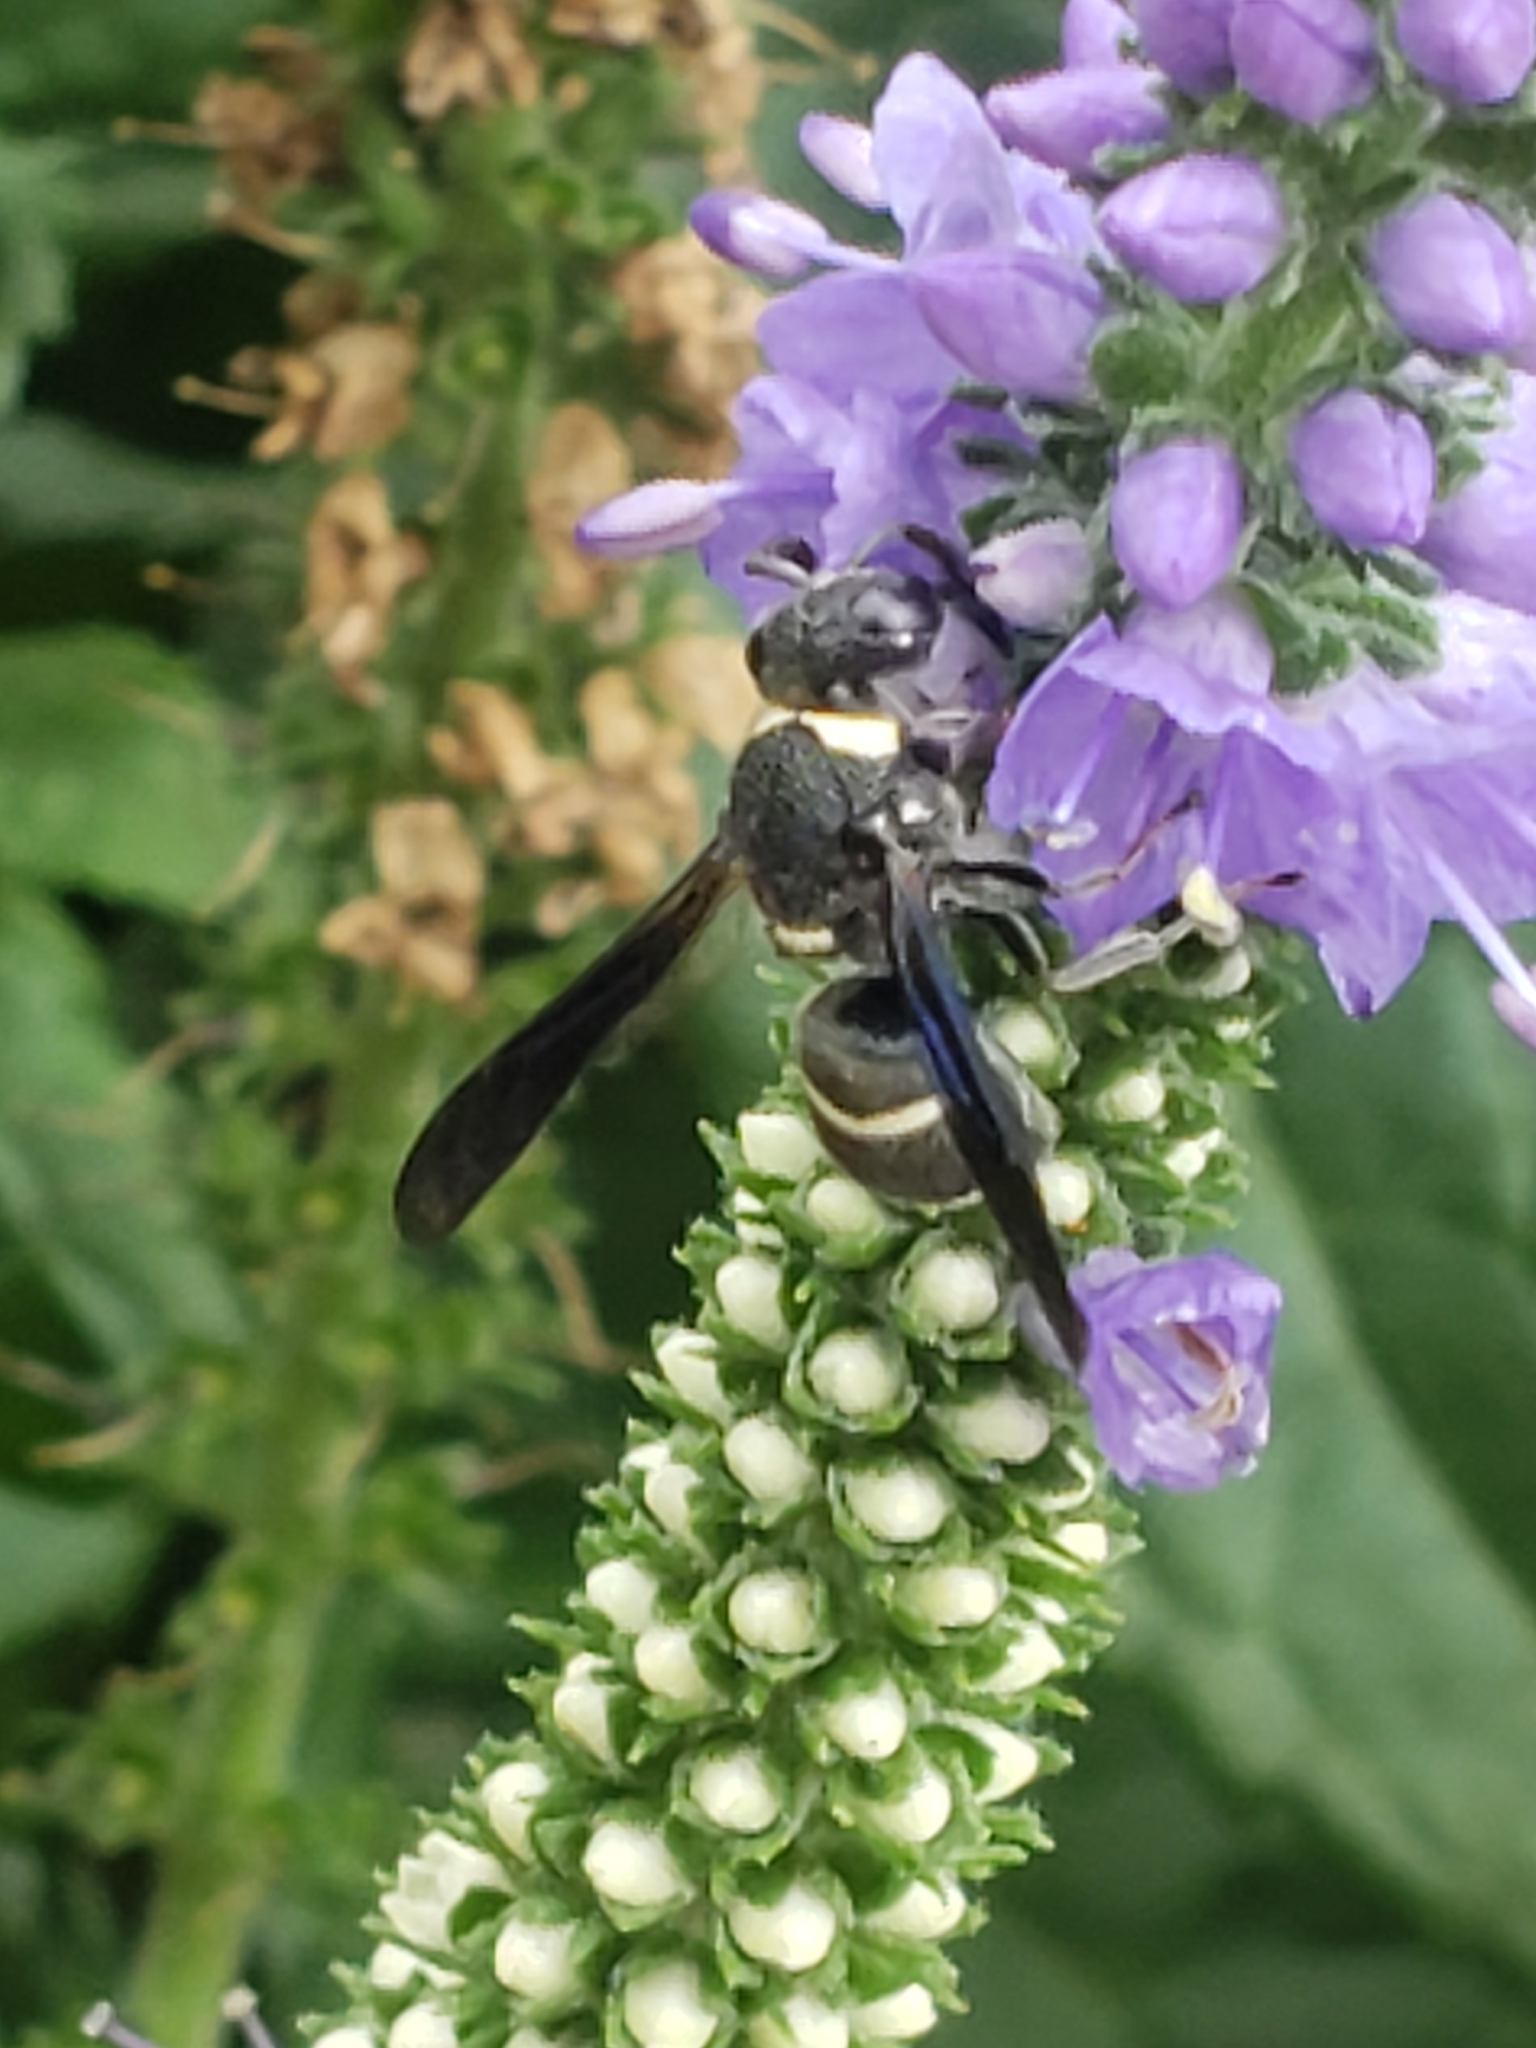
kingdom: Animalia
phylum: Arthropoda
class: Insecta
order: Hymenoptera
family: Eumenidae
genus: Euodynerus
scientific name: Euodynerus megaera
